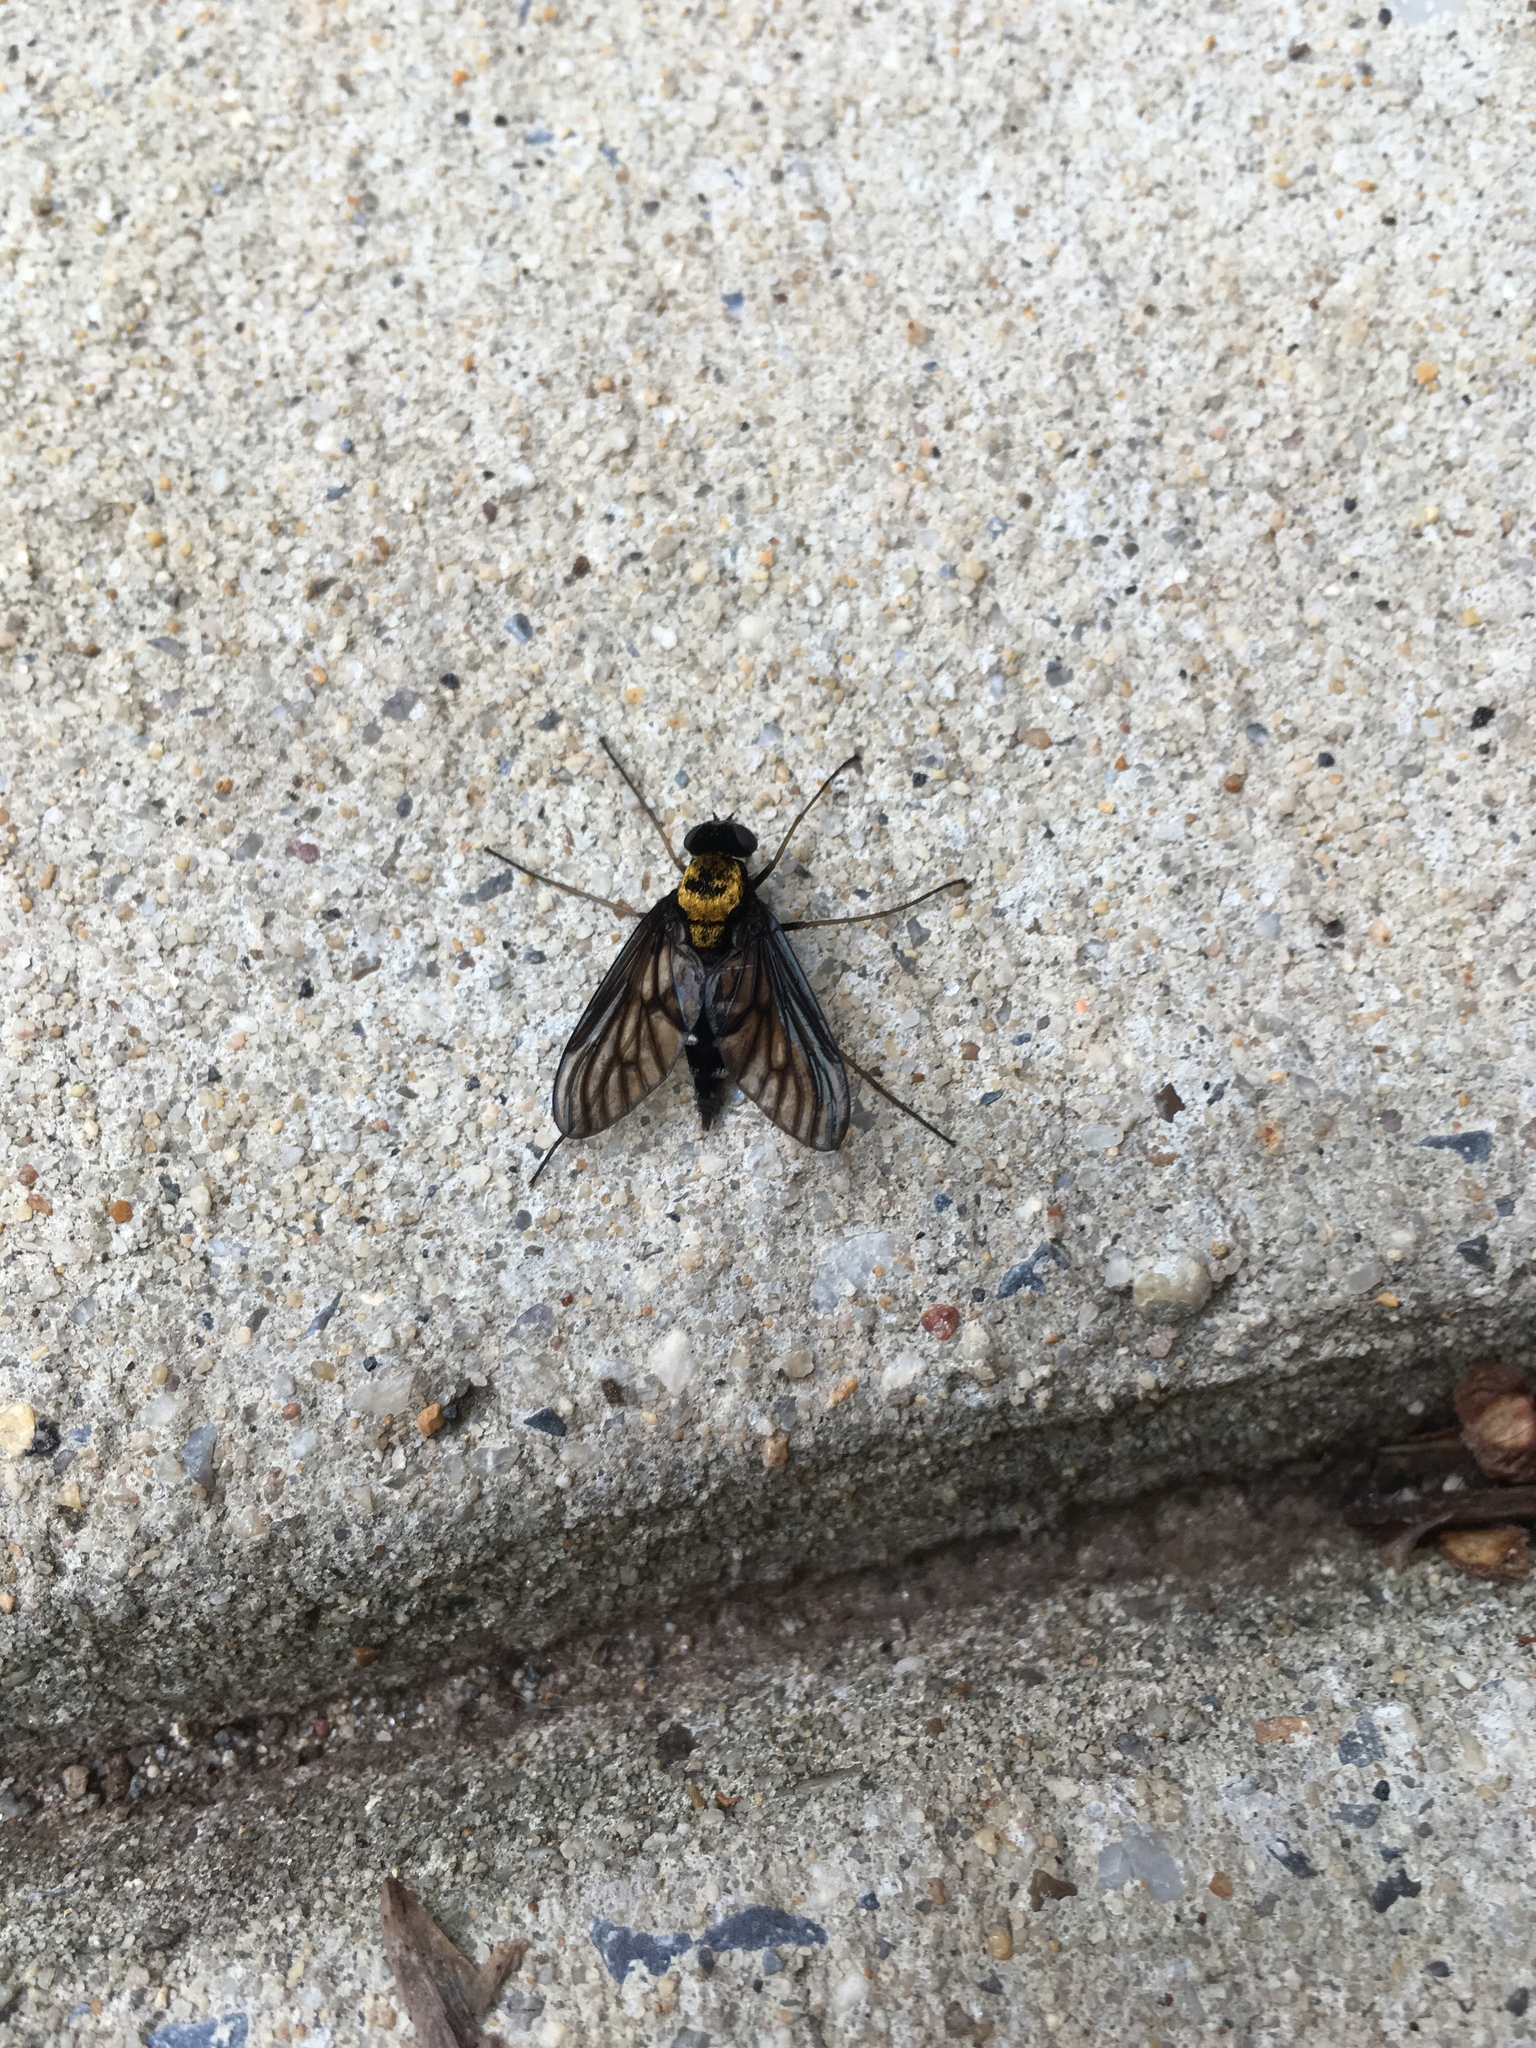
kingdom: Animalia
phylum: Arthropoda
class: Insecta
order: Diptera
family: Rhagionidae
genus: Chrysopilus
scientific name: Chrysopilus thoracicus
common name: Golden-backed snipe fly
